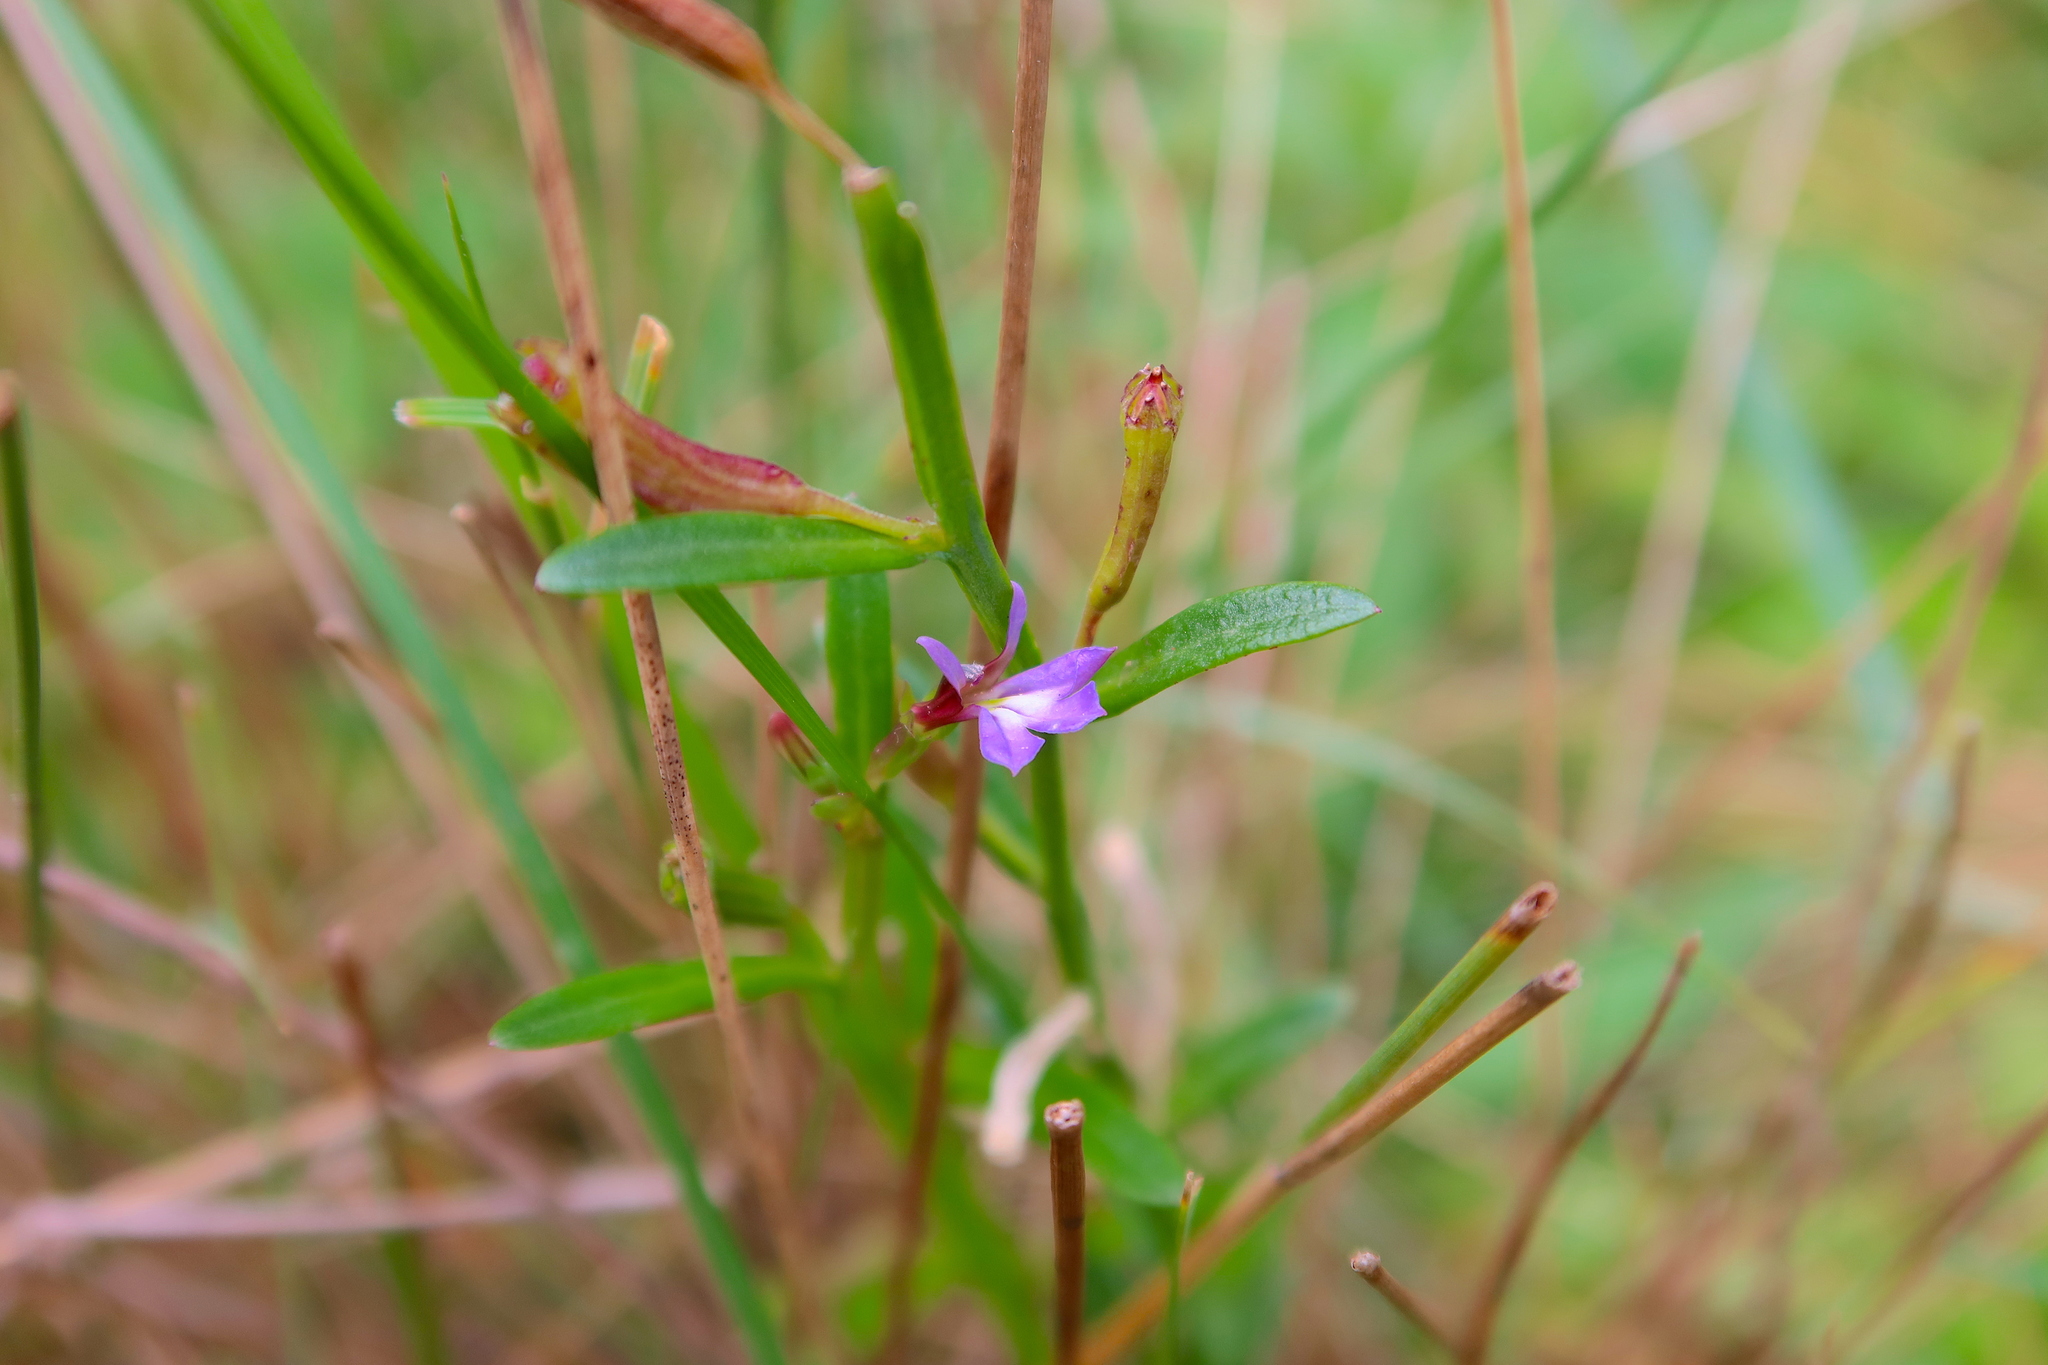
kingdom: Plantae
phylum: Tracheophyta
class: Magnoliopsida
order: Asterales
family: Campanulaceae
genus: Lobelia
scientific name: Lobelia anceps
